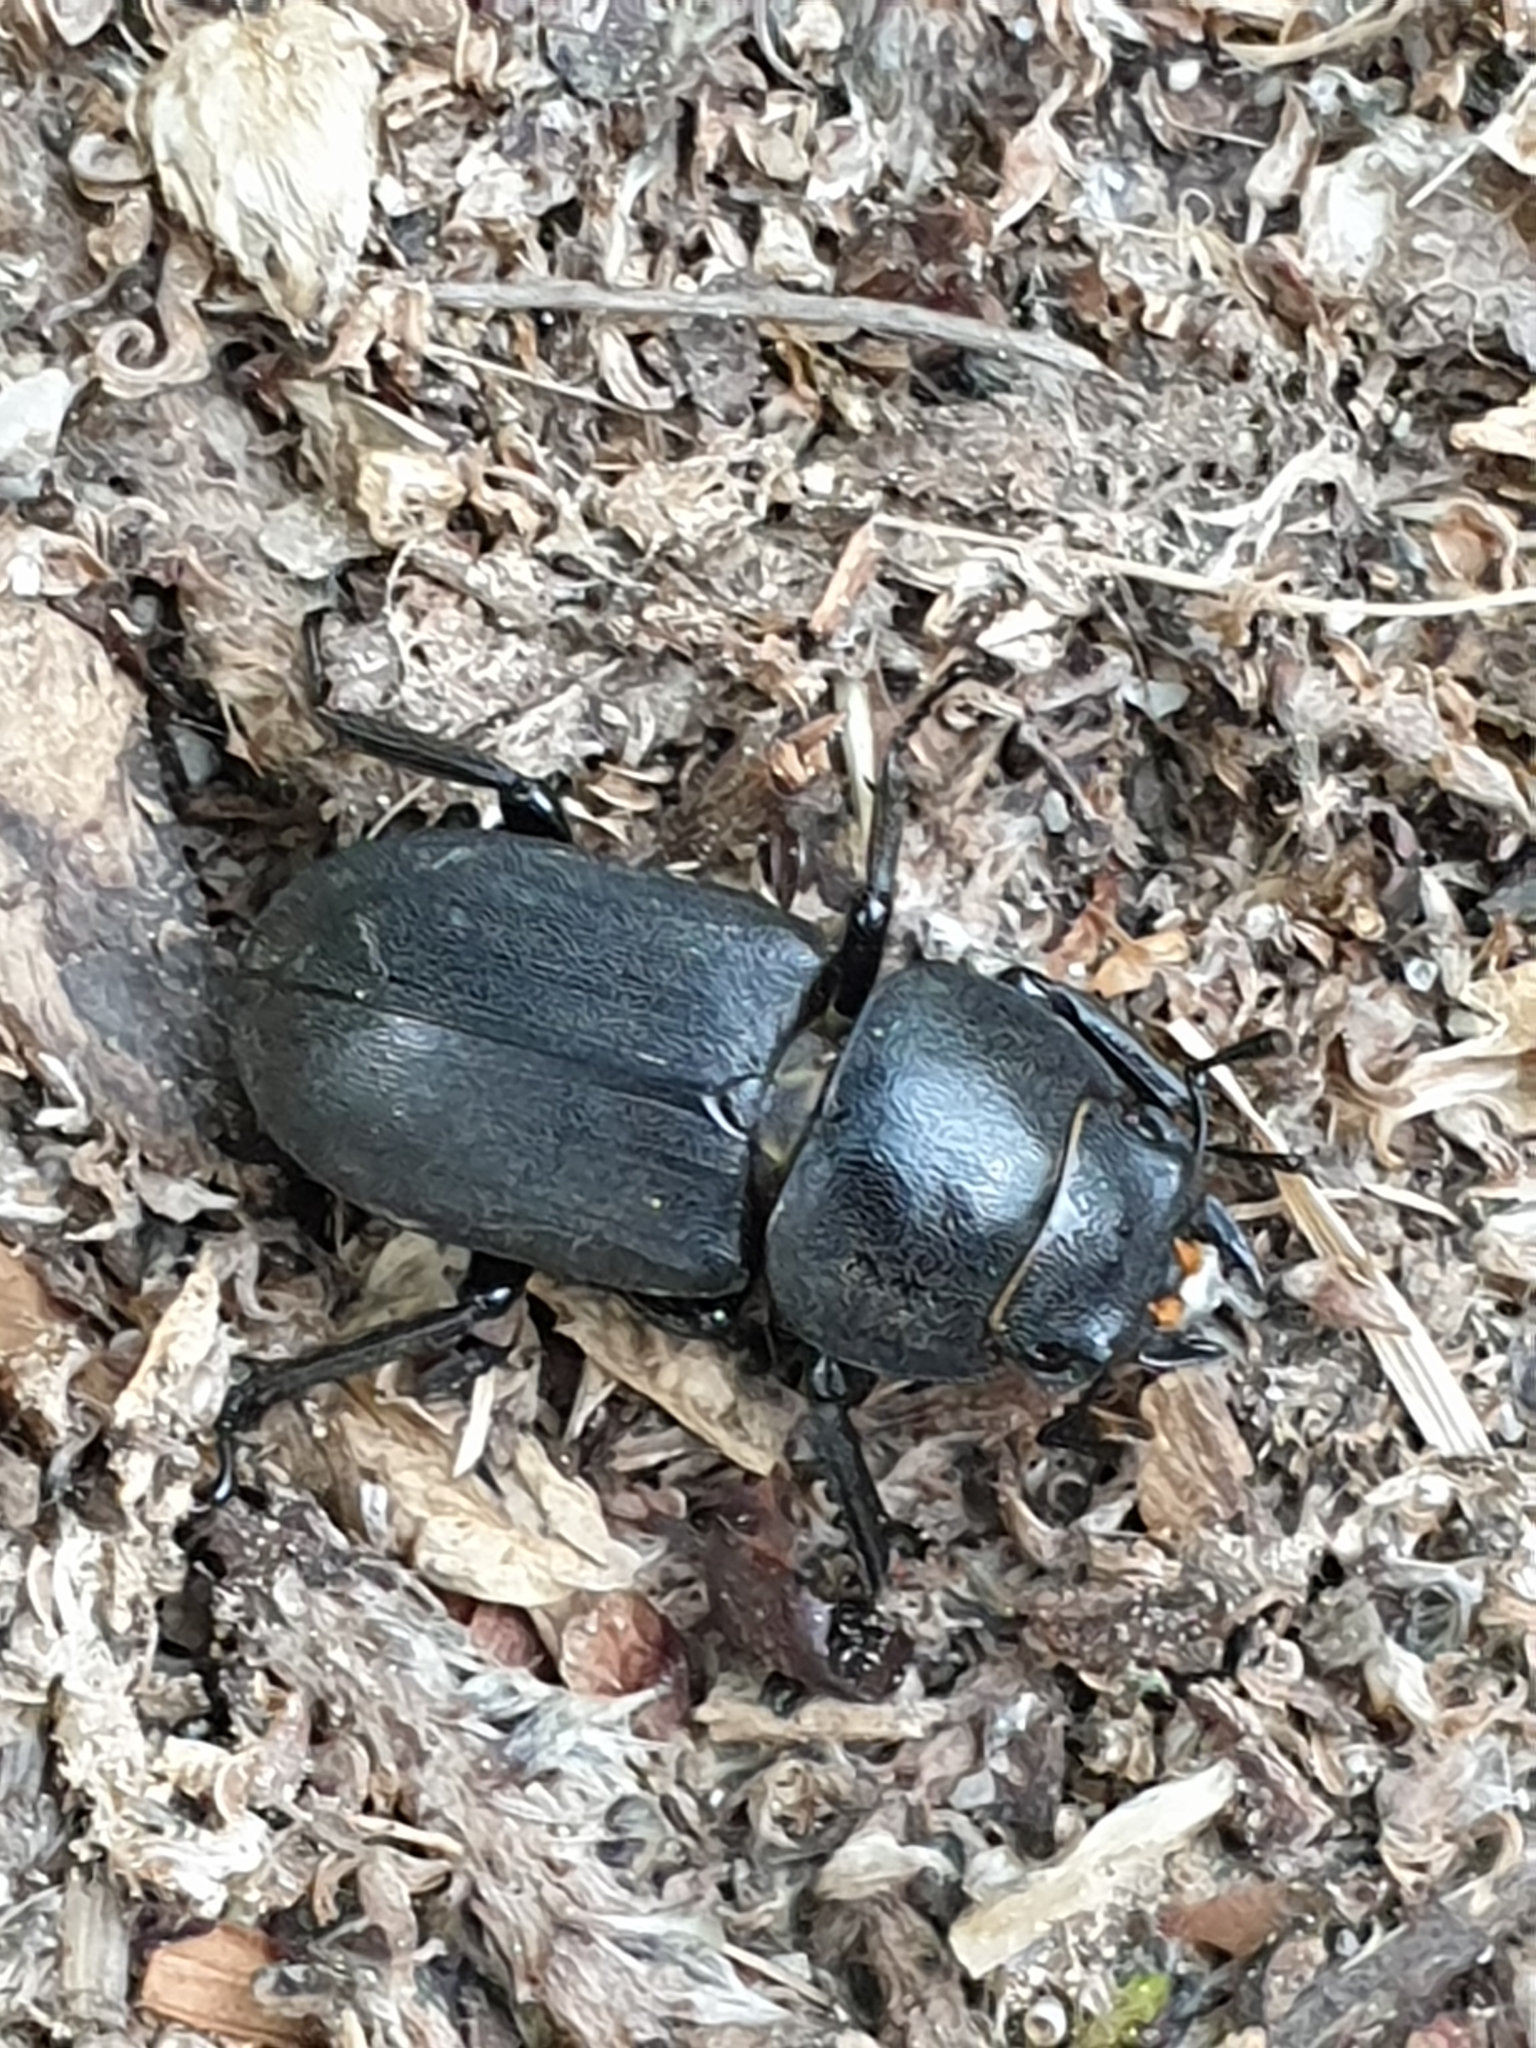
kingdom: Animalia
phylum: Arthropoda
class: Insecta
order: Coleoptera
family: Lucanidae
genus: Dorcus
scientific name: Dorcus parallelipipedus
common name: Lesser stag beetle
